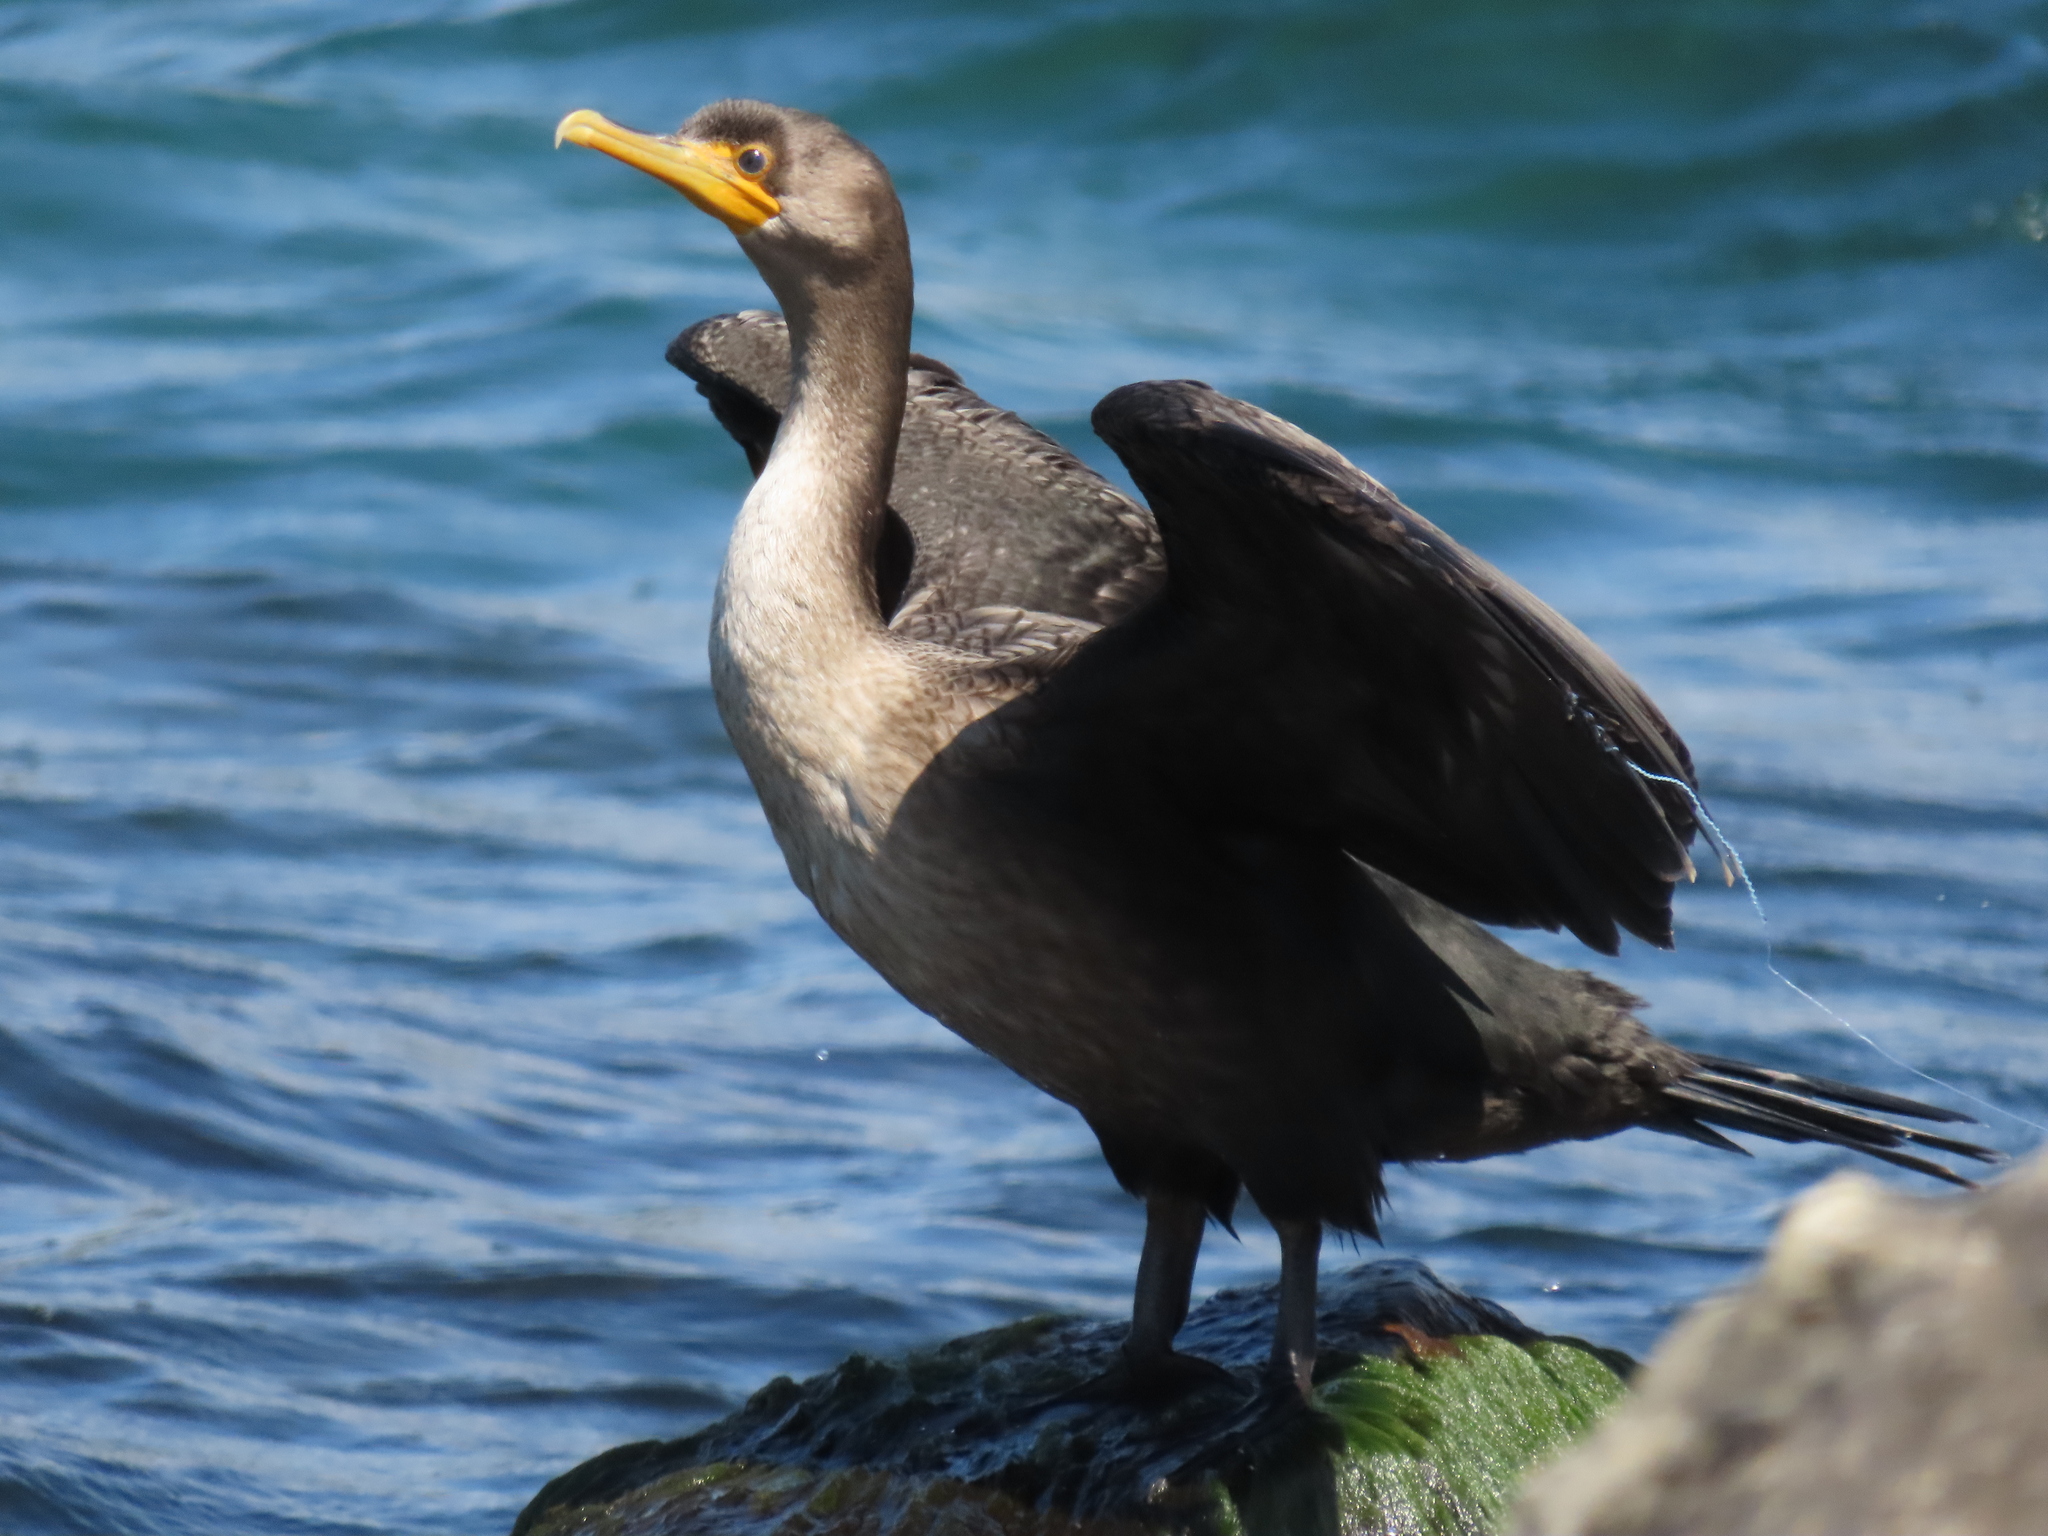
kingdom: Animalia
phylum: Chordata
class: Aves
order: Suliformes
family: Phalacrocoracidae
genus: Phalacrocorax
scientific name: Phalacrocorax auritus
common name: Double-crested cormorant
